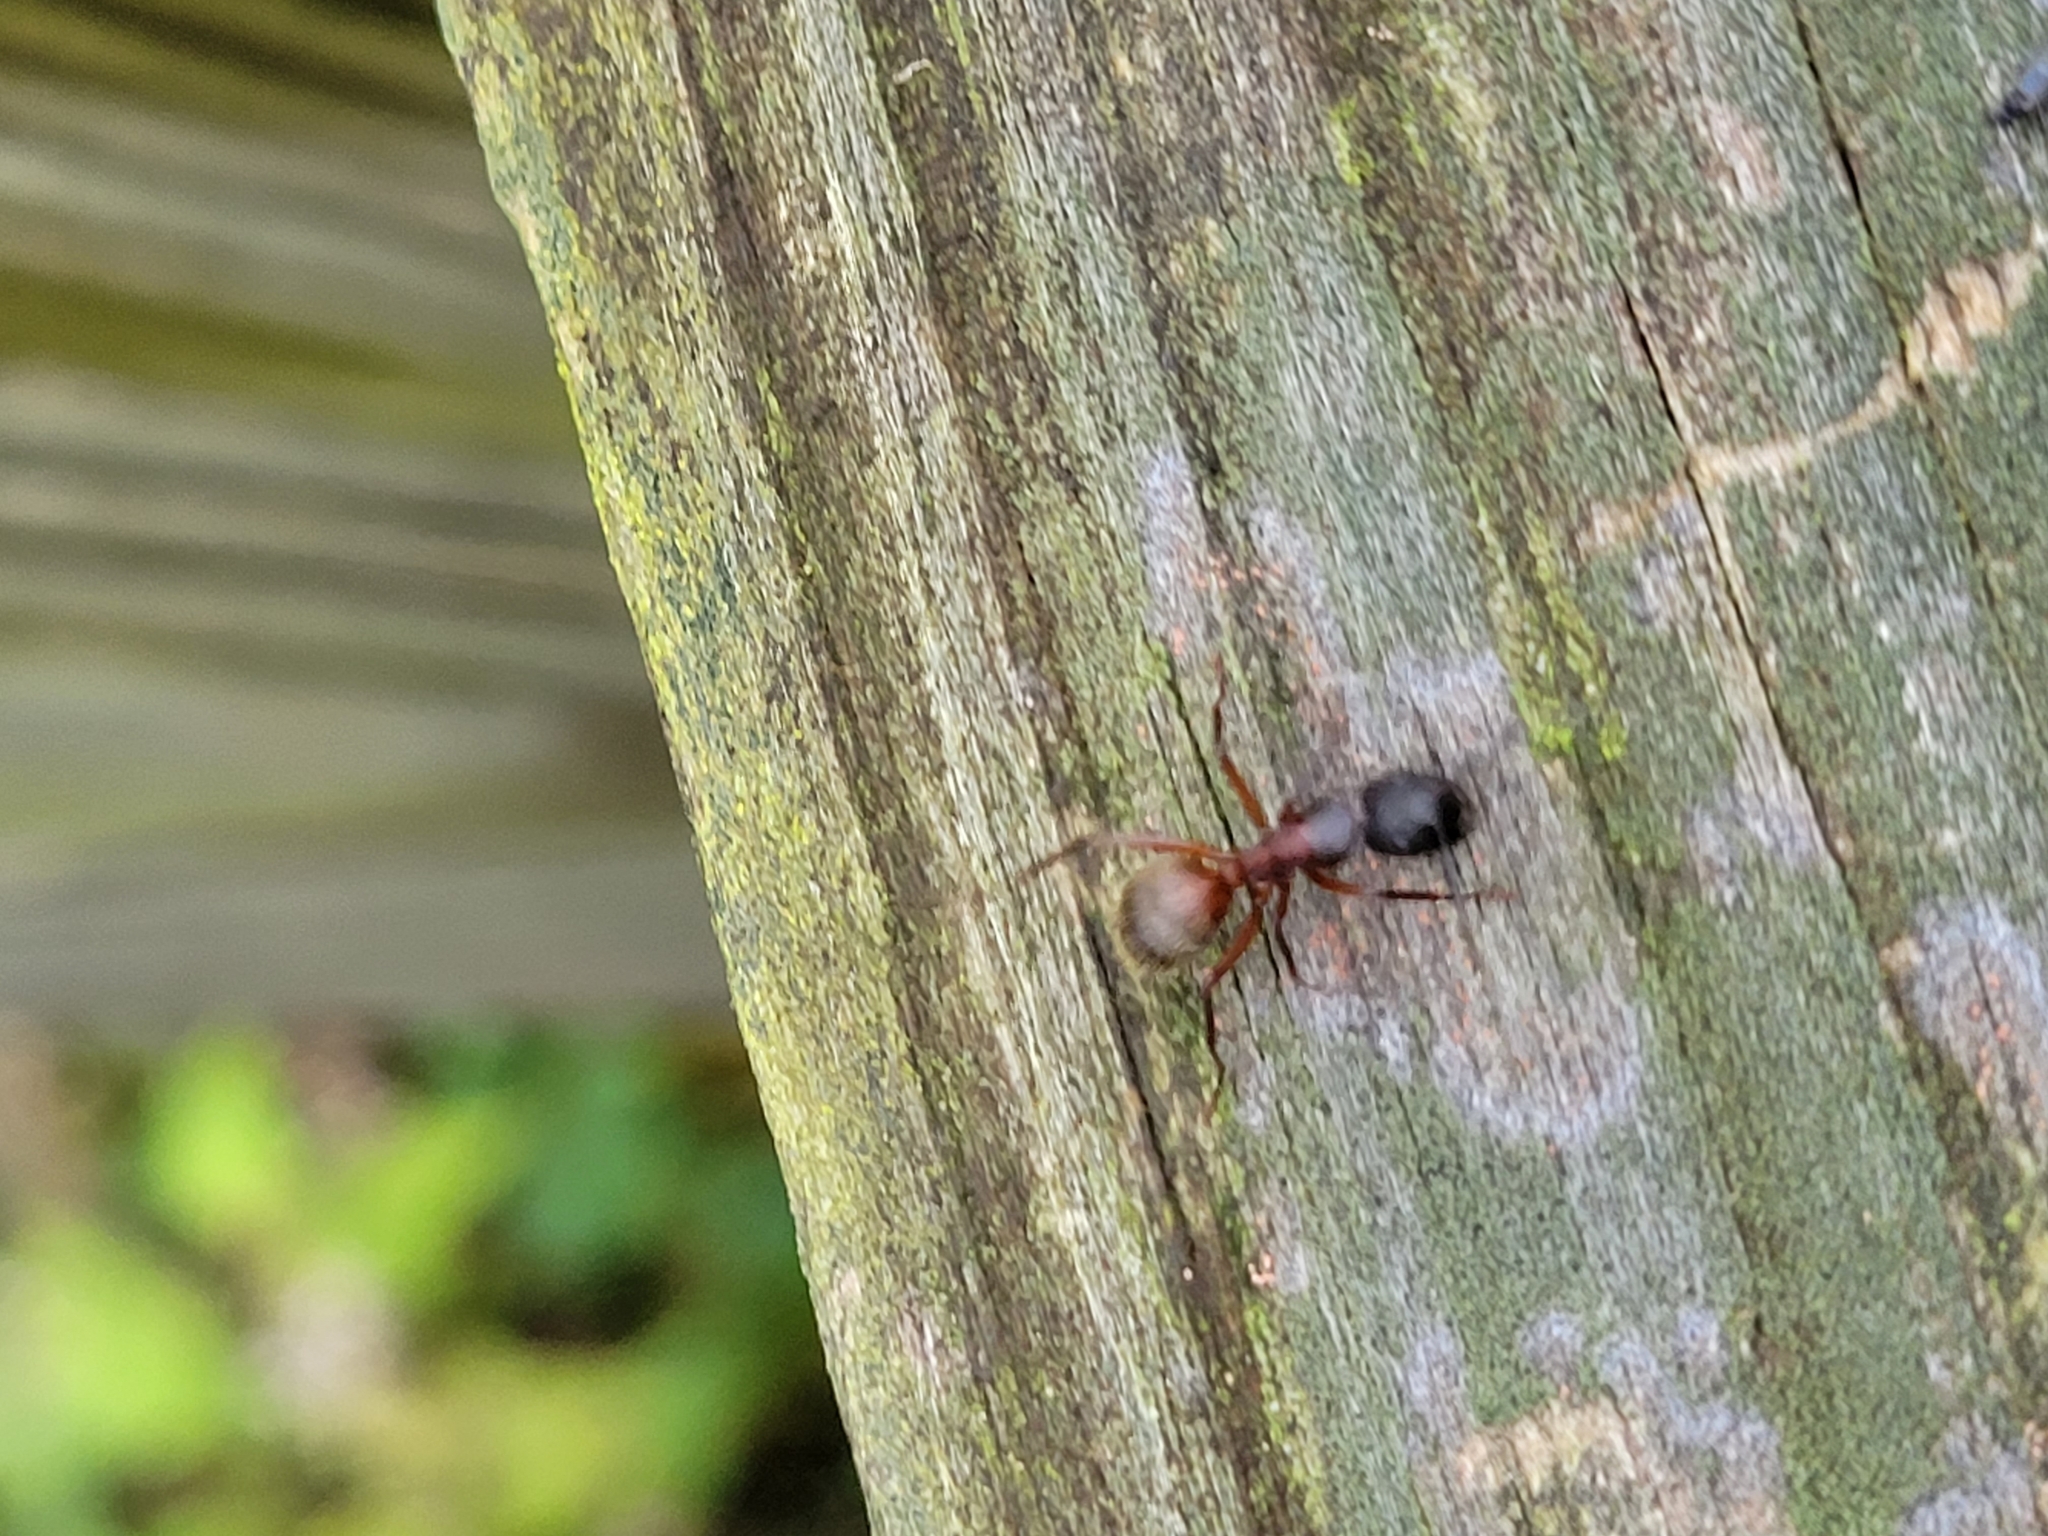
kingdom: Animalia
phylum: Arthropoda
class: Insecta
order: Hymenoptera
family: Formicidae
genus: Camponotus
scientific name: Camponotus chromaiodes
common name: Red carpenter ant
